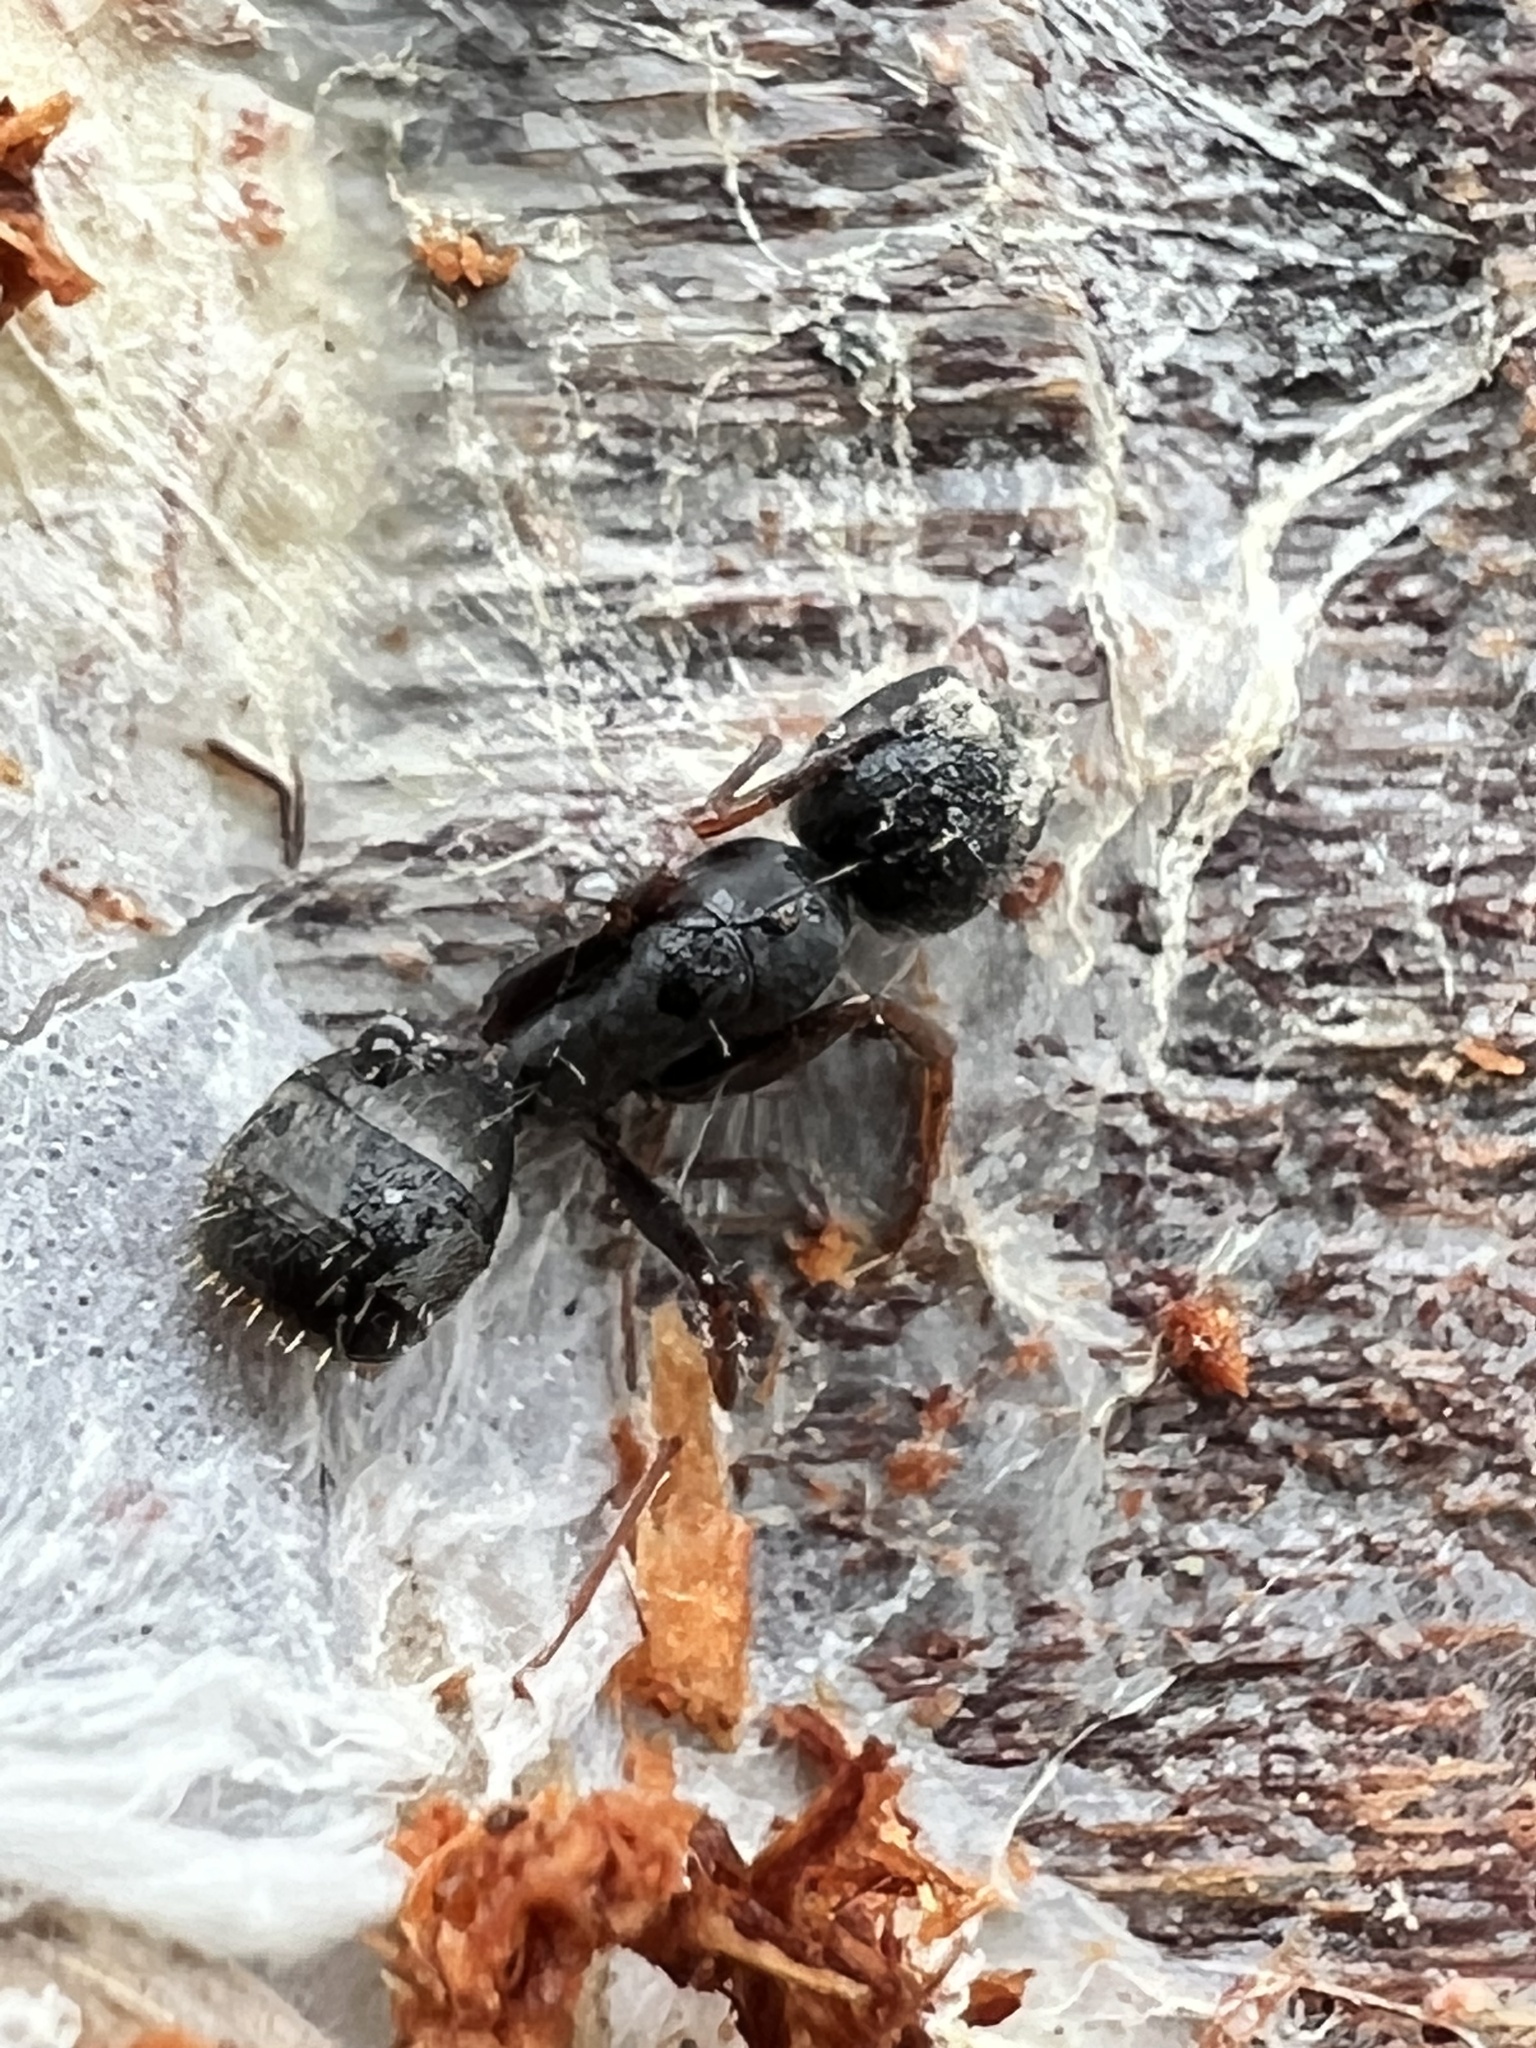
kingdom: Animalia
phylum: Arthropoda
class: Insecta
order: Hymenoptera
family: Formicidae
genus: Camponotus
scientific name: Camponotus modoc
